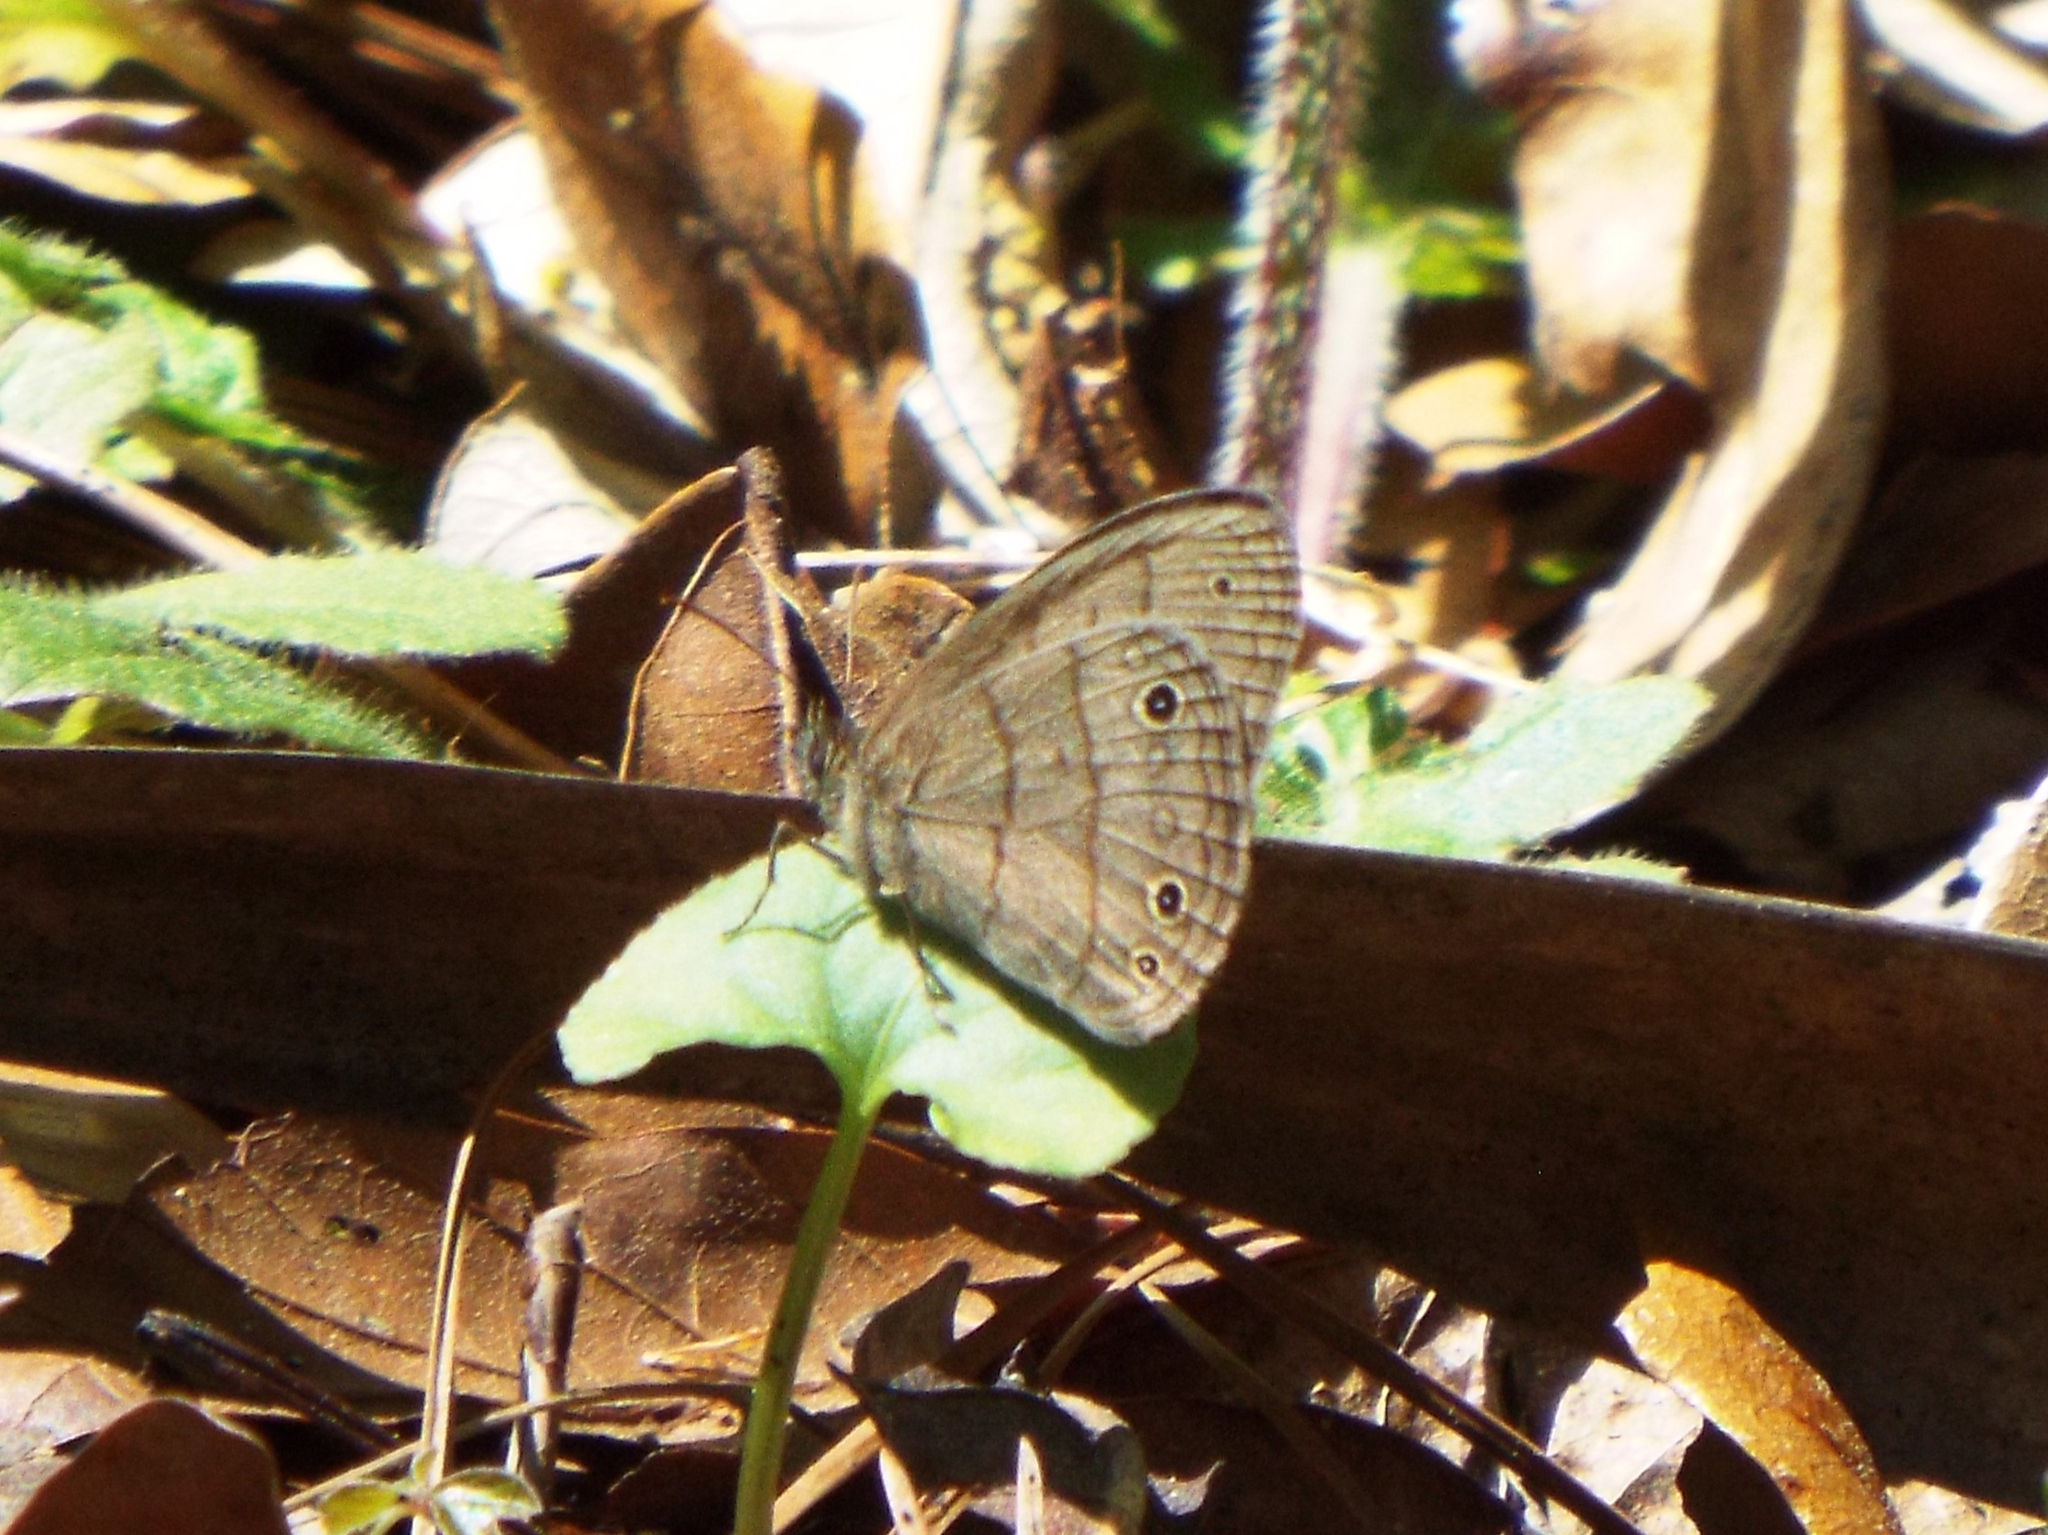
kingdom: Animalia
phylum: Arthropoda
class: Insecta
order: Lepidoptera
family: Nymphalidae
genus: Hermeuptychia
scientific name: Hermeuptychia intricata
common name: Intricate satyr
